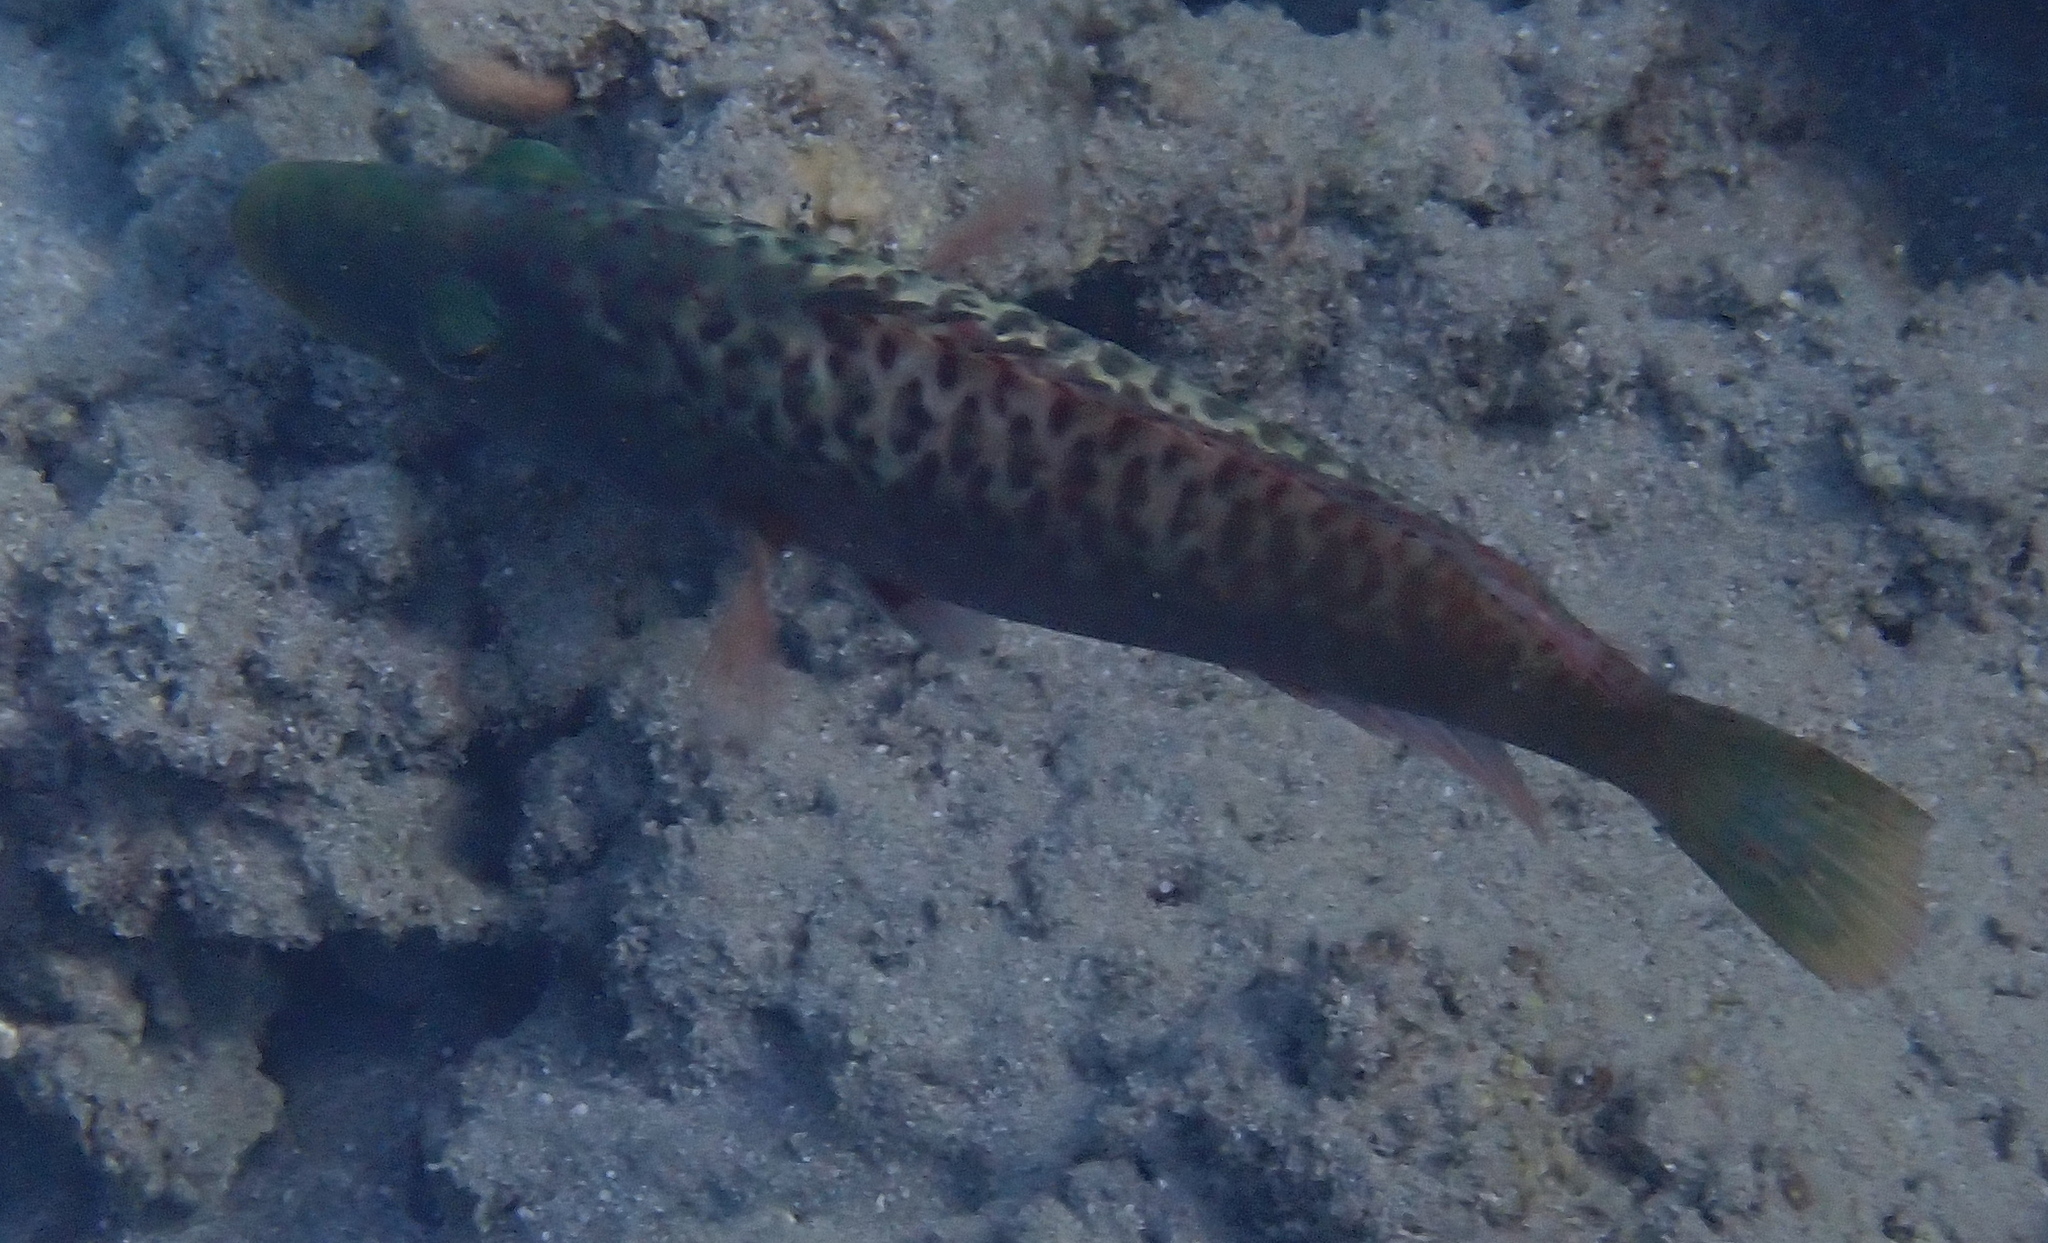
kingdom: Animalia
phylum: Chordata
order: Perciformes
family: Labridae
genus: Oxycheilinus
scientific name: Oxycheilinus digramma
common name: Bandcheek wrasse
